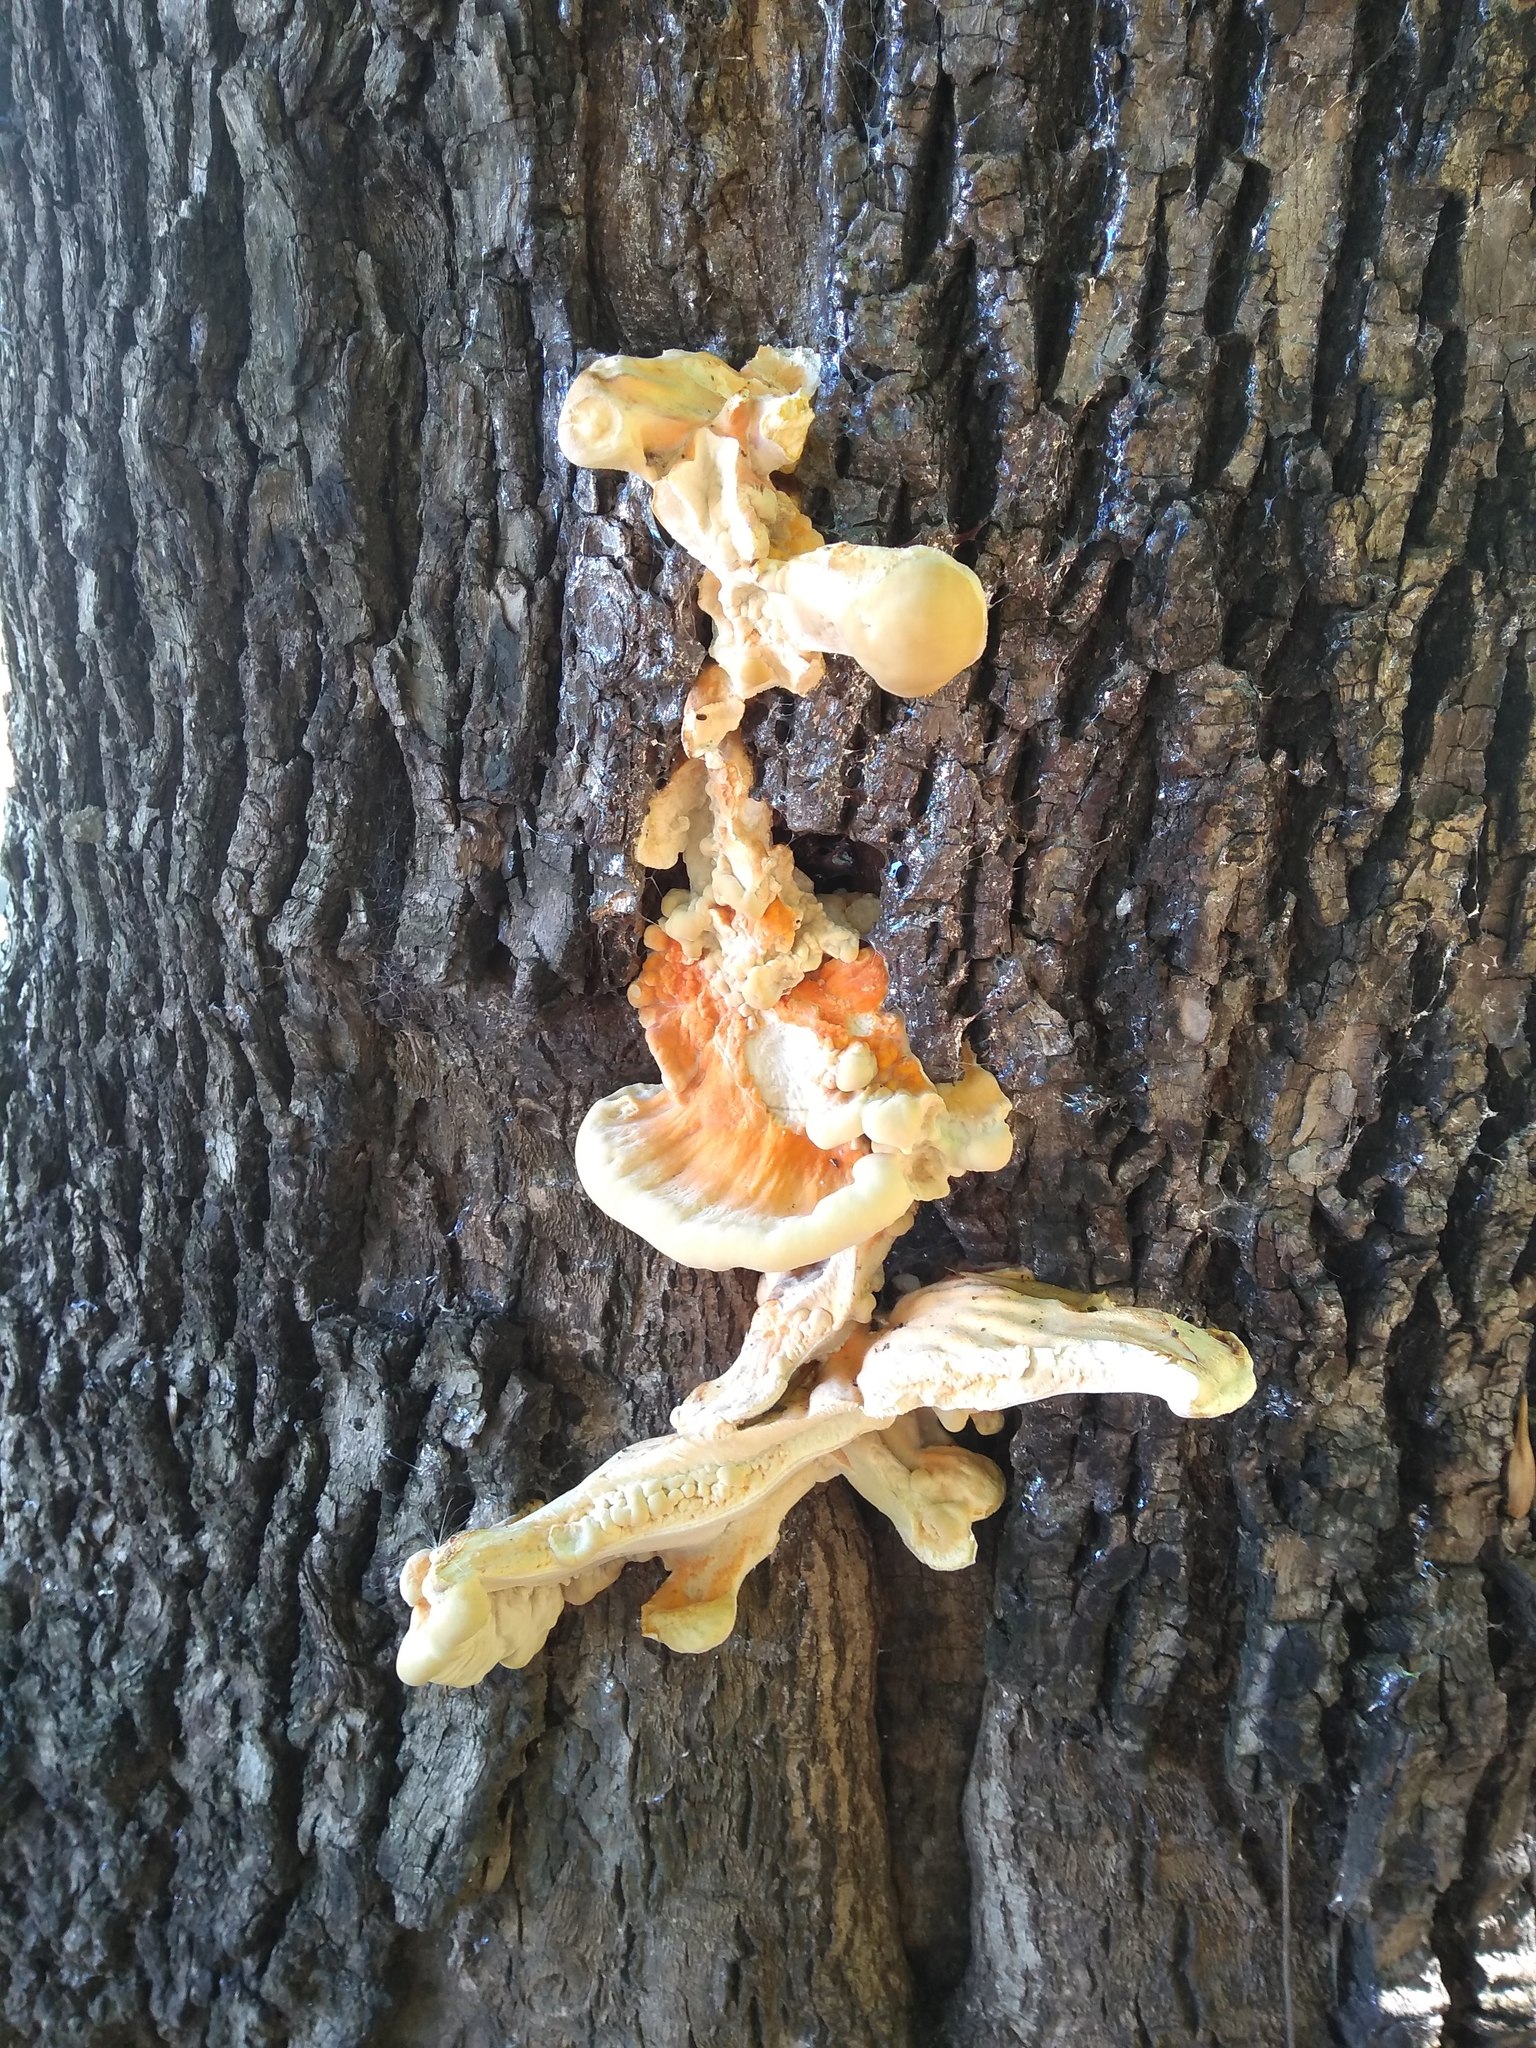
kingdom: Fungi
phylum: Basidiomycota
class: Agaricomycetes
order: Polyporales
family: Laetiporaceae
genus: Laetiporus
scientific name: Laetiporus sulphureus
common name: Chicken of the woods
